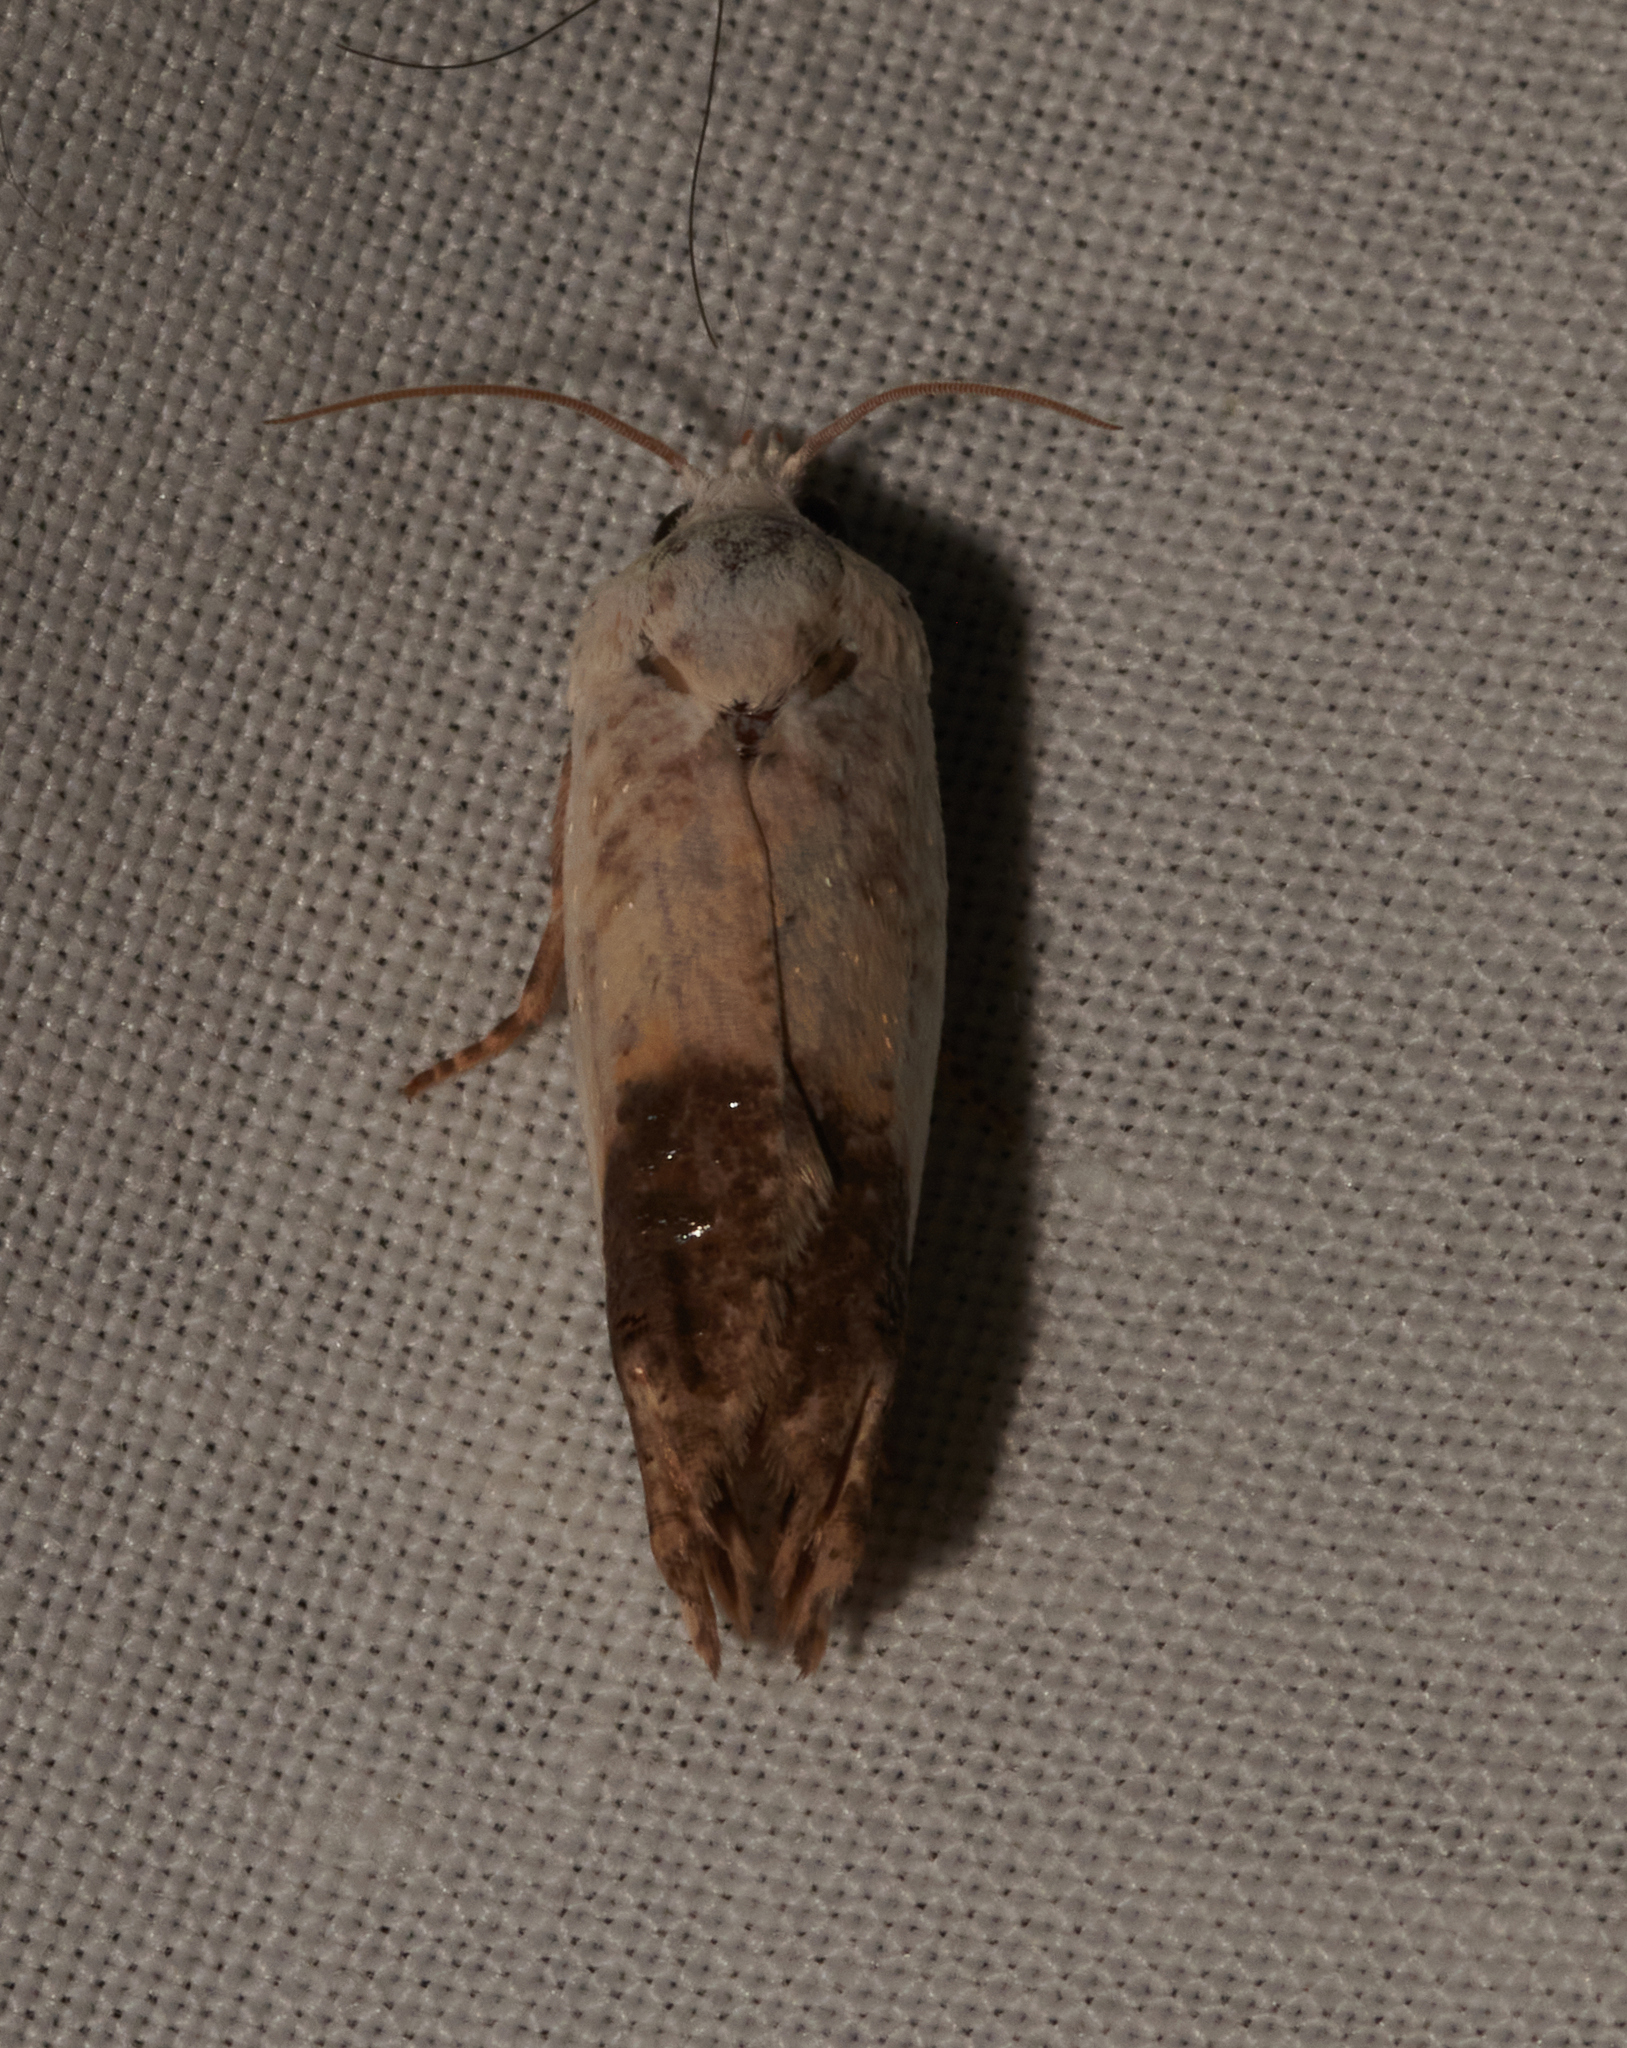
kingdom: Animalia
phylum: Arthropoda
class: Insecta
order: Lepidoptera
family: Tortricidae
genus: Eucosma
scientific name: Eucosma giganteana
